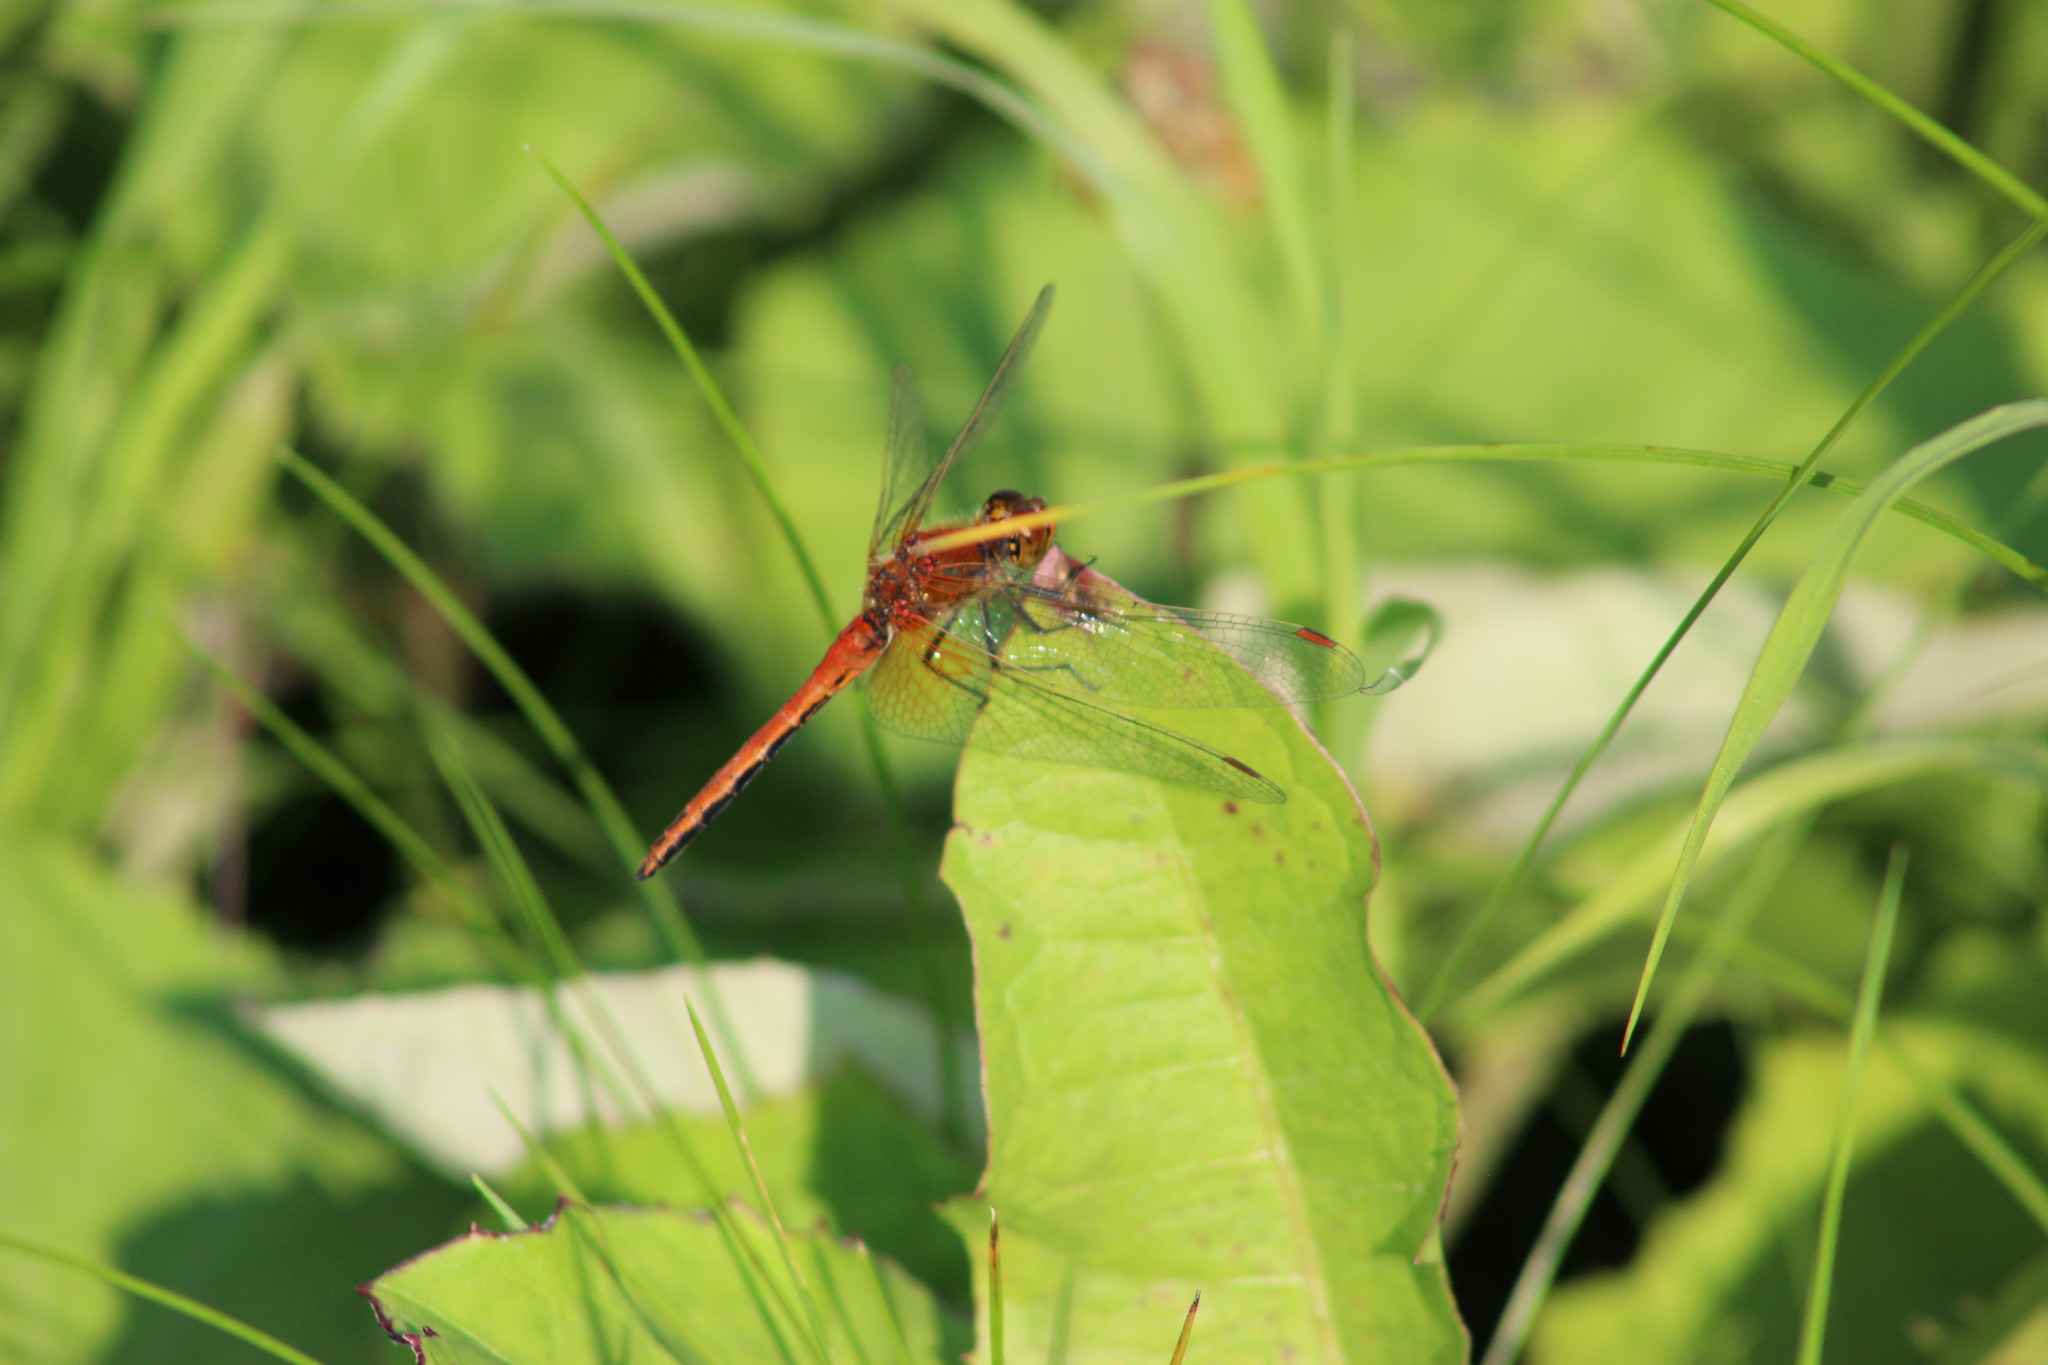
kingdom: Animalia
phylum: Arthropoda
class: Insecta
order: Odonata
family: Libellulidae
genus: Sympetrum
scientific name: Sympetrum flaveolum
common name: Yellow-winged darter
